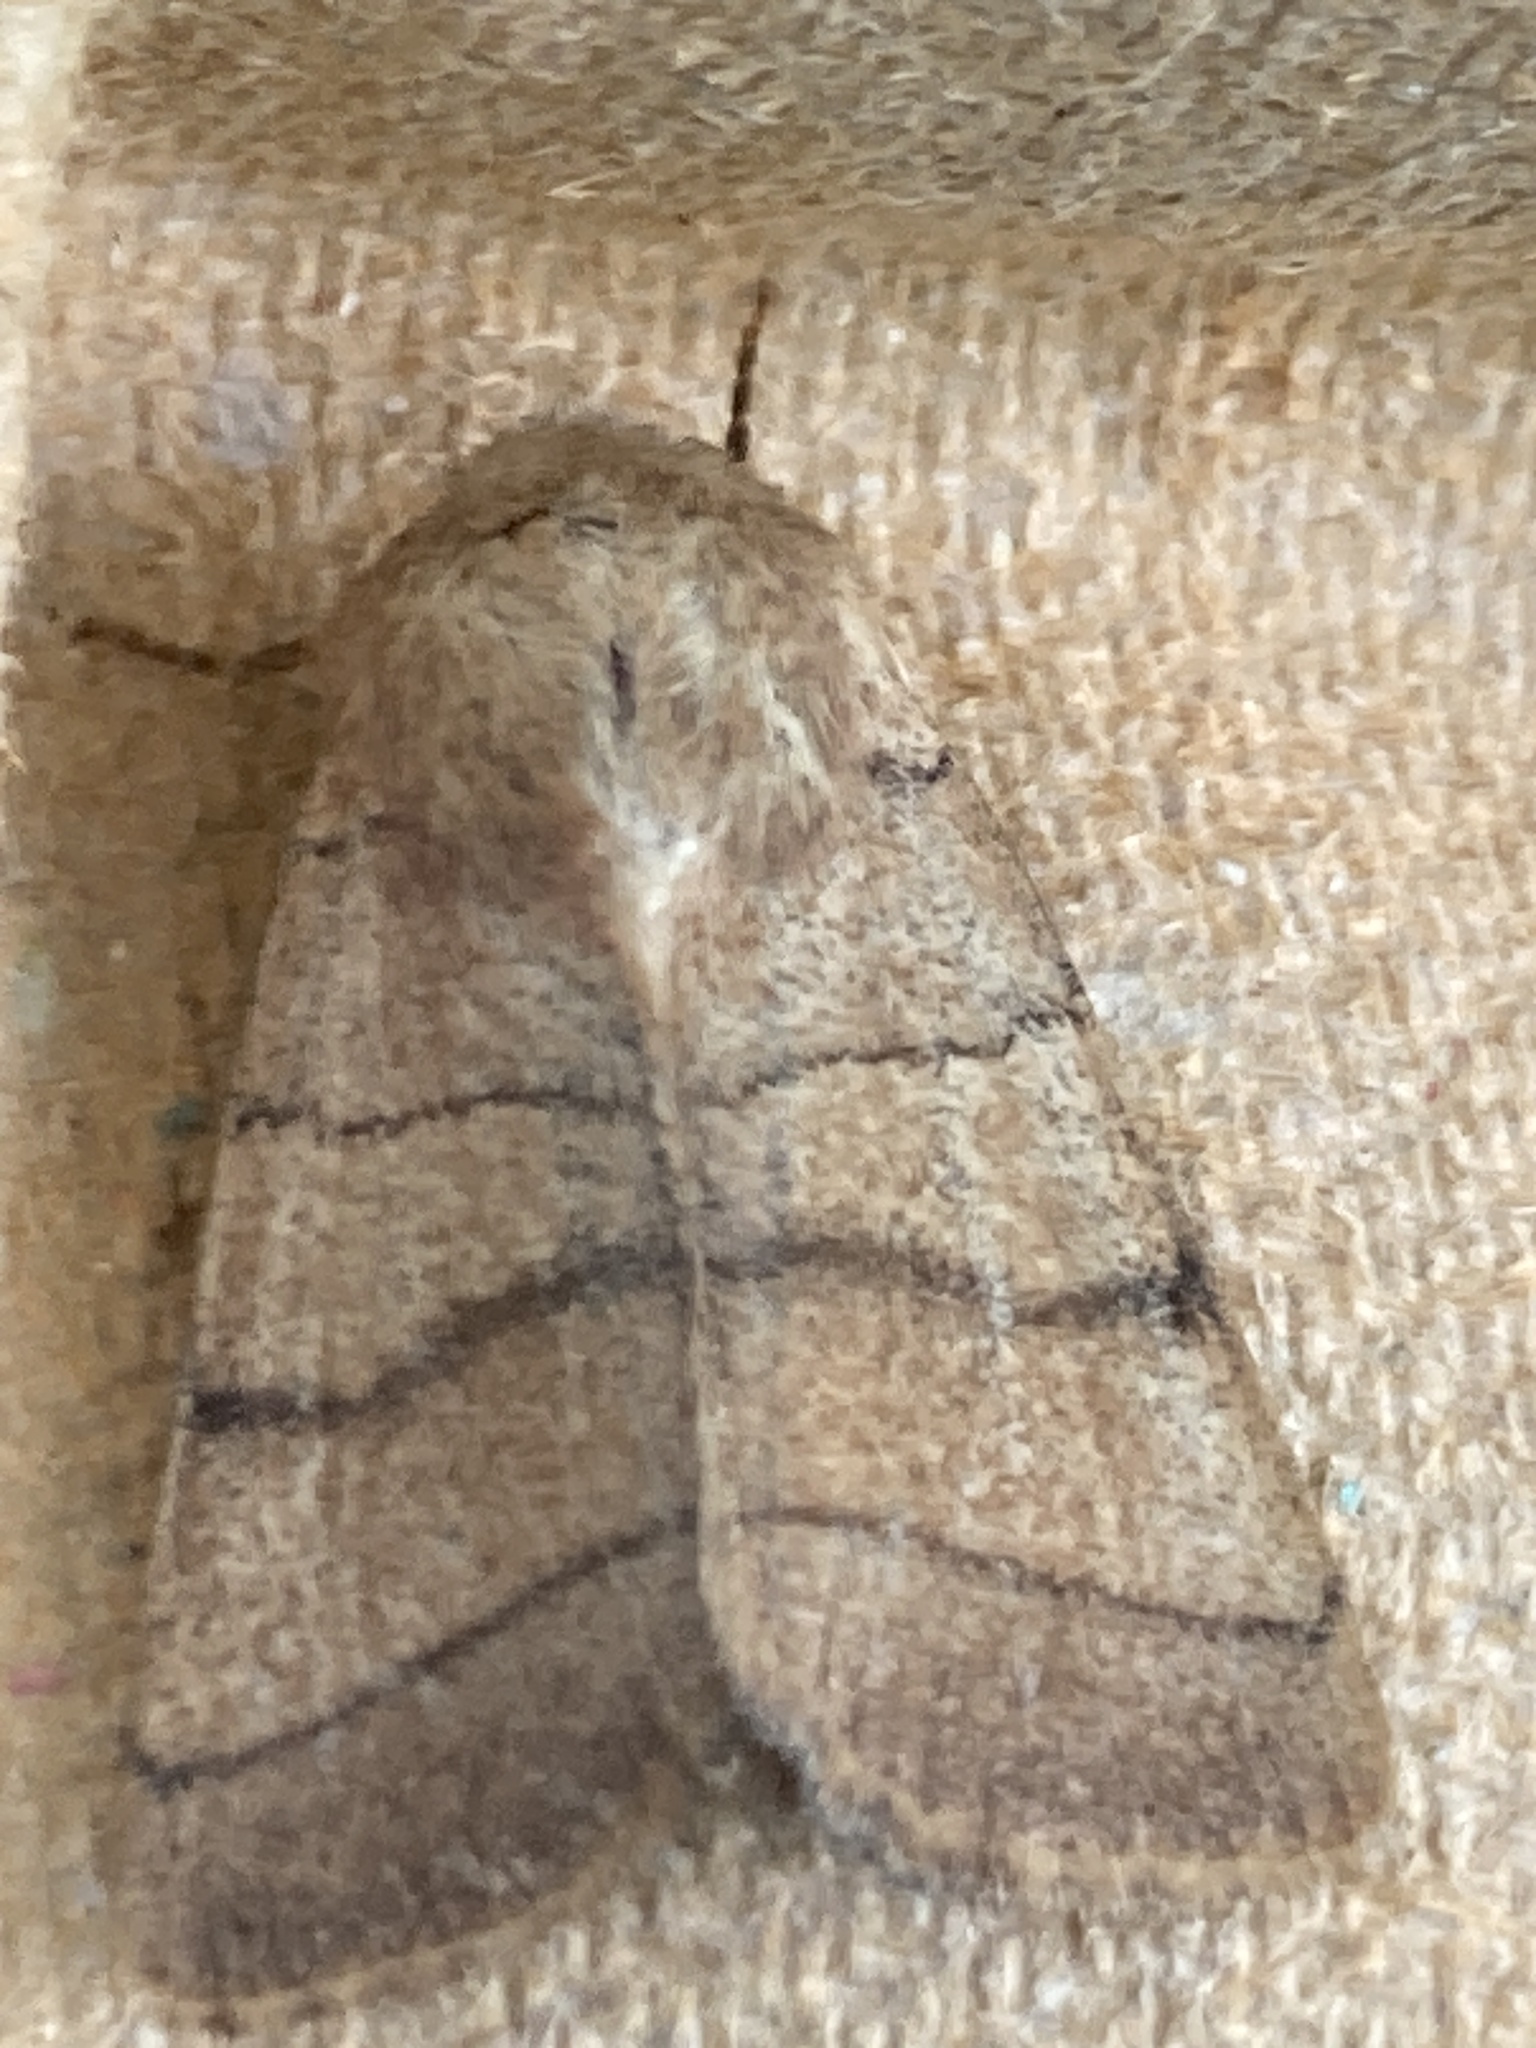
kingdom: Animalia
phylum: Arthropoda
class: Insecta
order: Lepidoptera
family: Noctuidae
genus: Charanyca
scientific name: Charanyca trigrammica
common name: Treble lines
